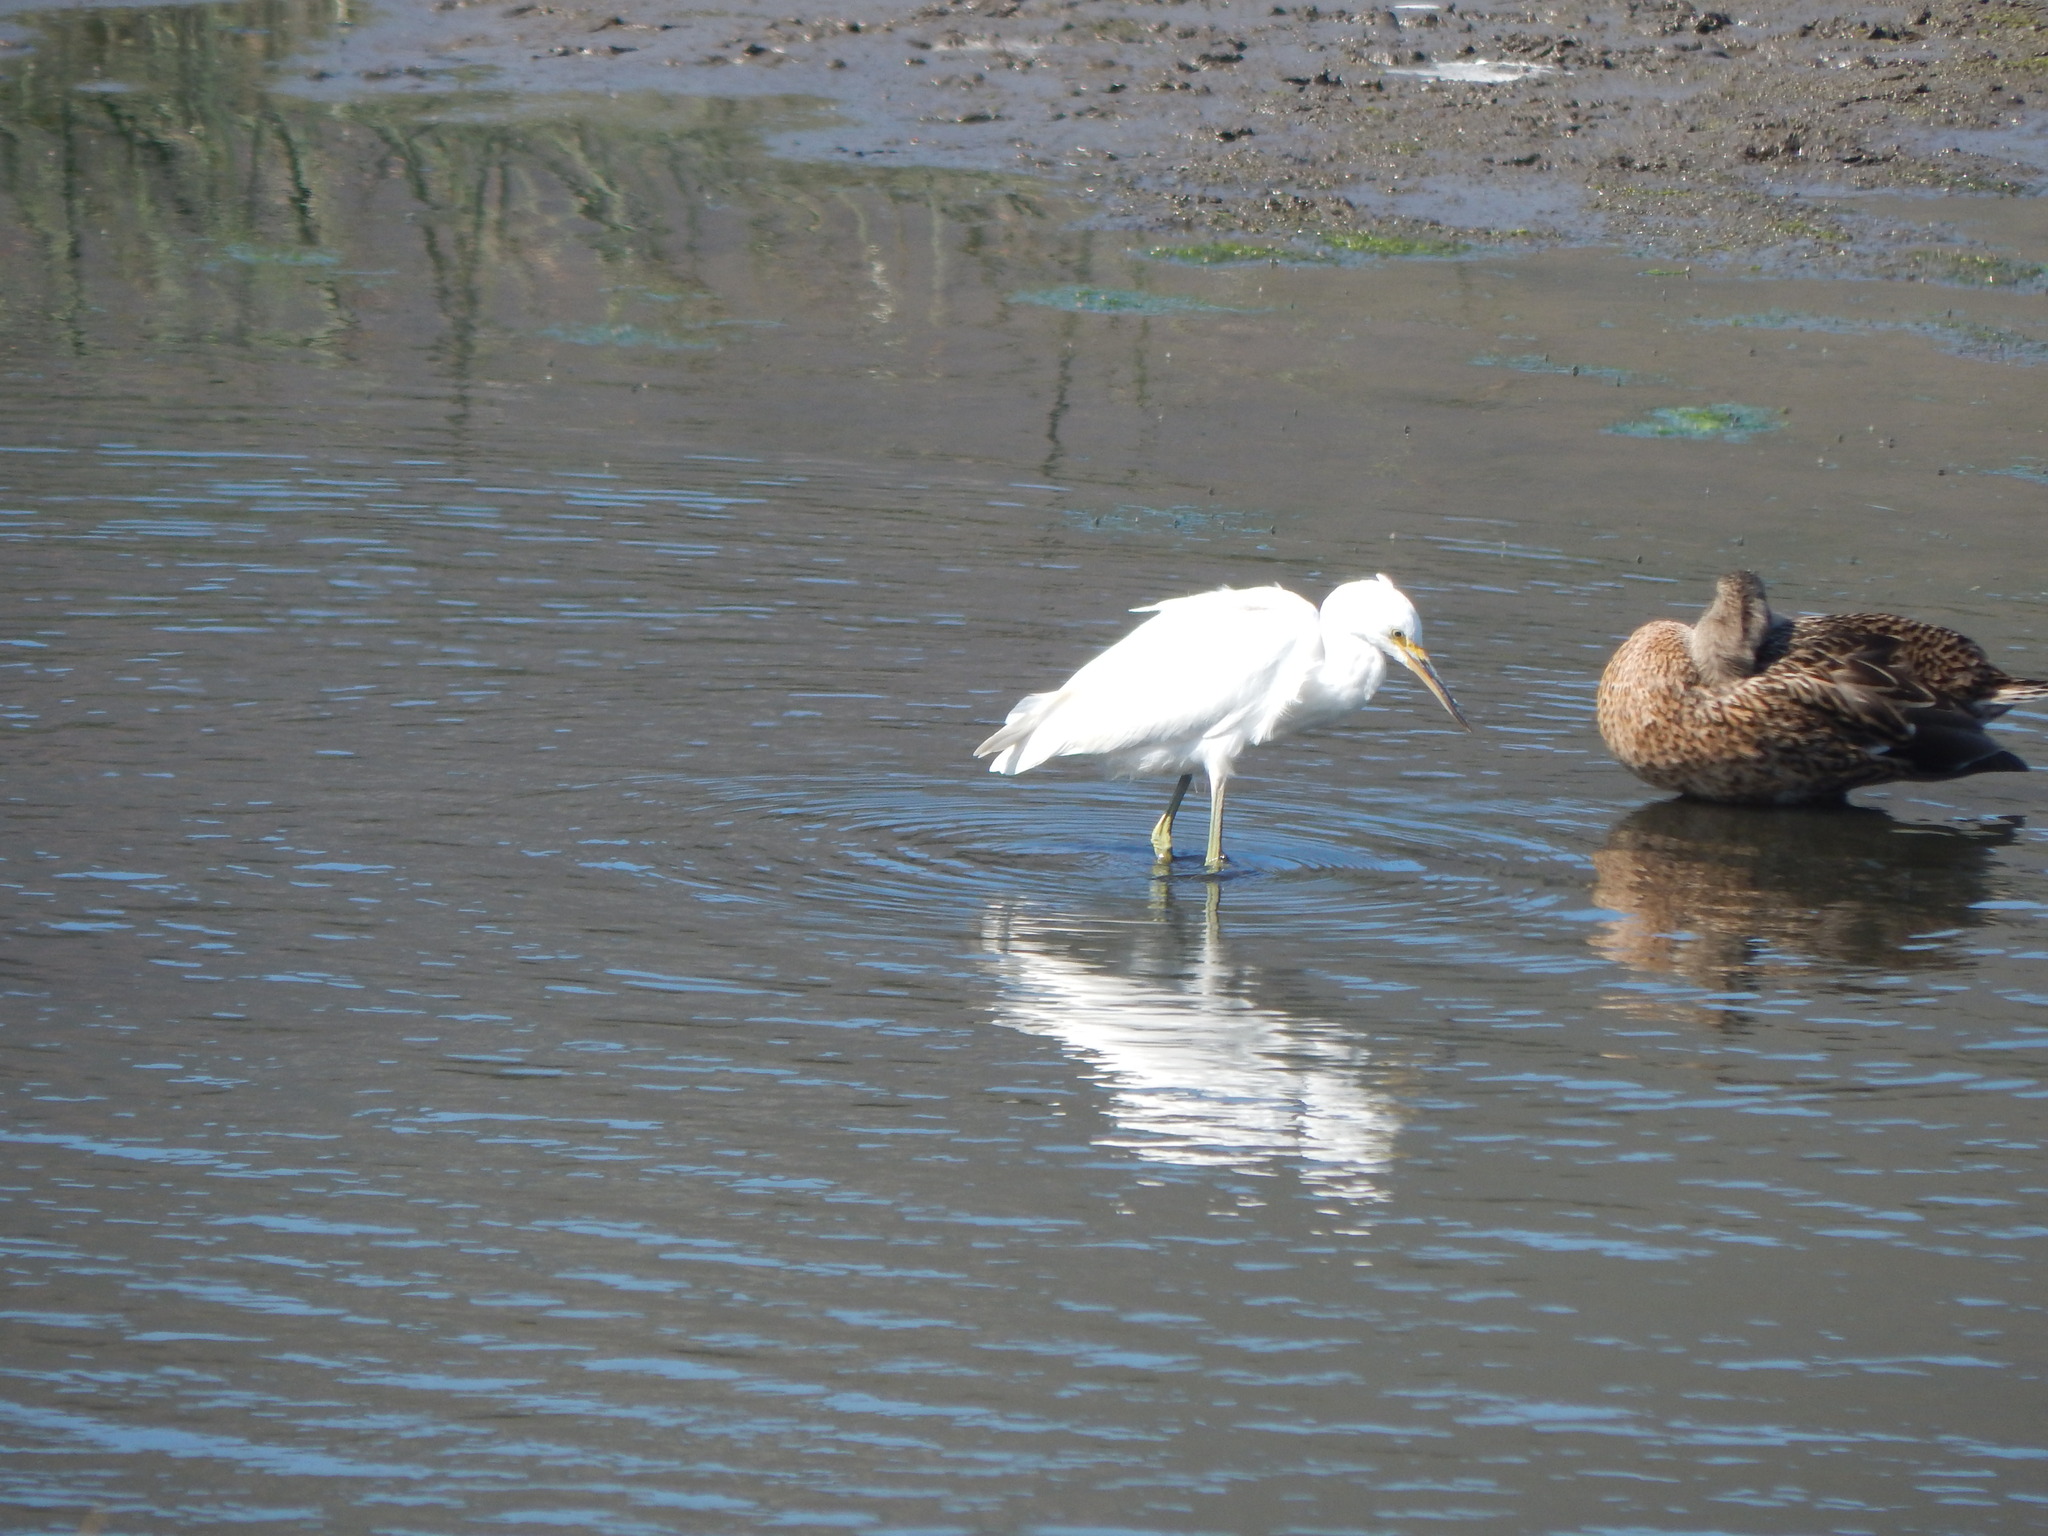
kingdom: Animalia
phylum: Chordata
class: Aves
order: Pelecaniformes
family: Ardeidae
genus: Egretta
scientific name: Egretta thula
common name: Snowy egret
